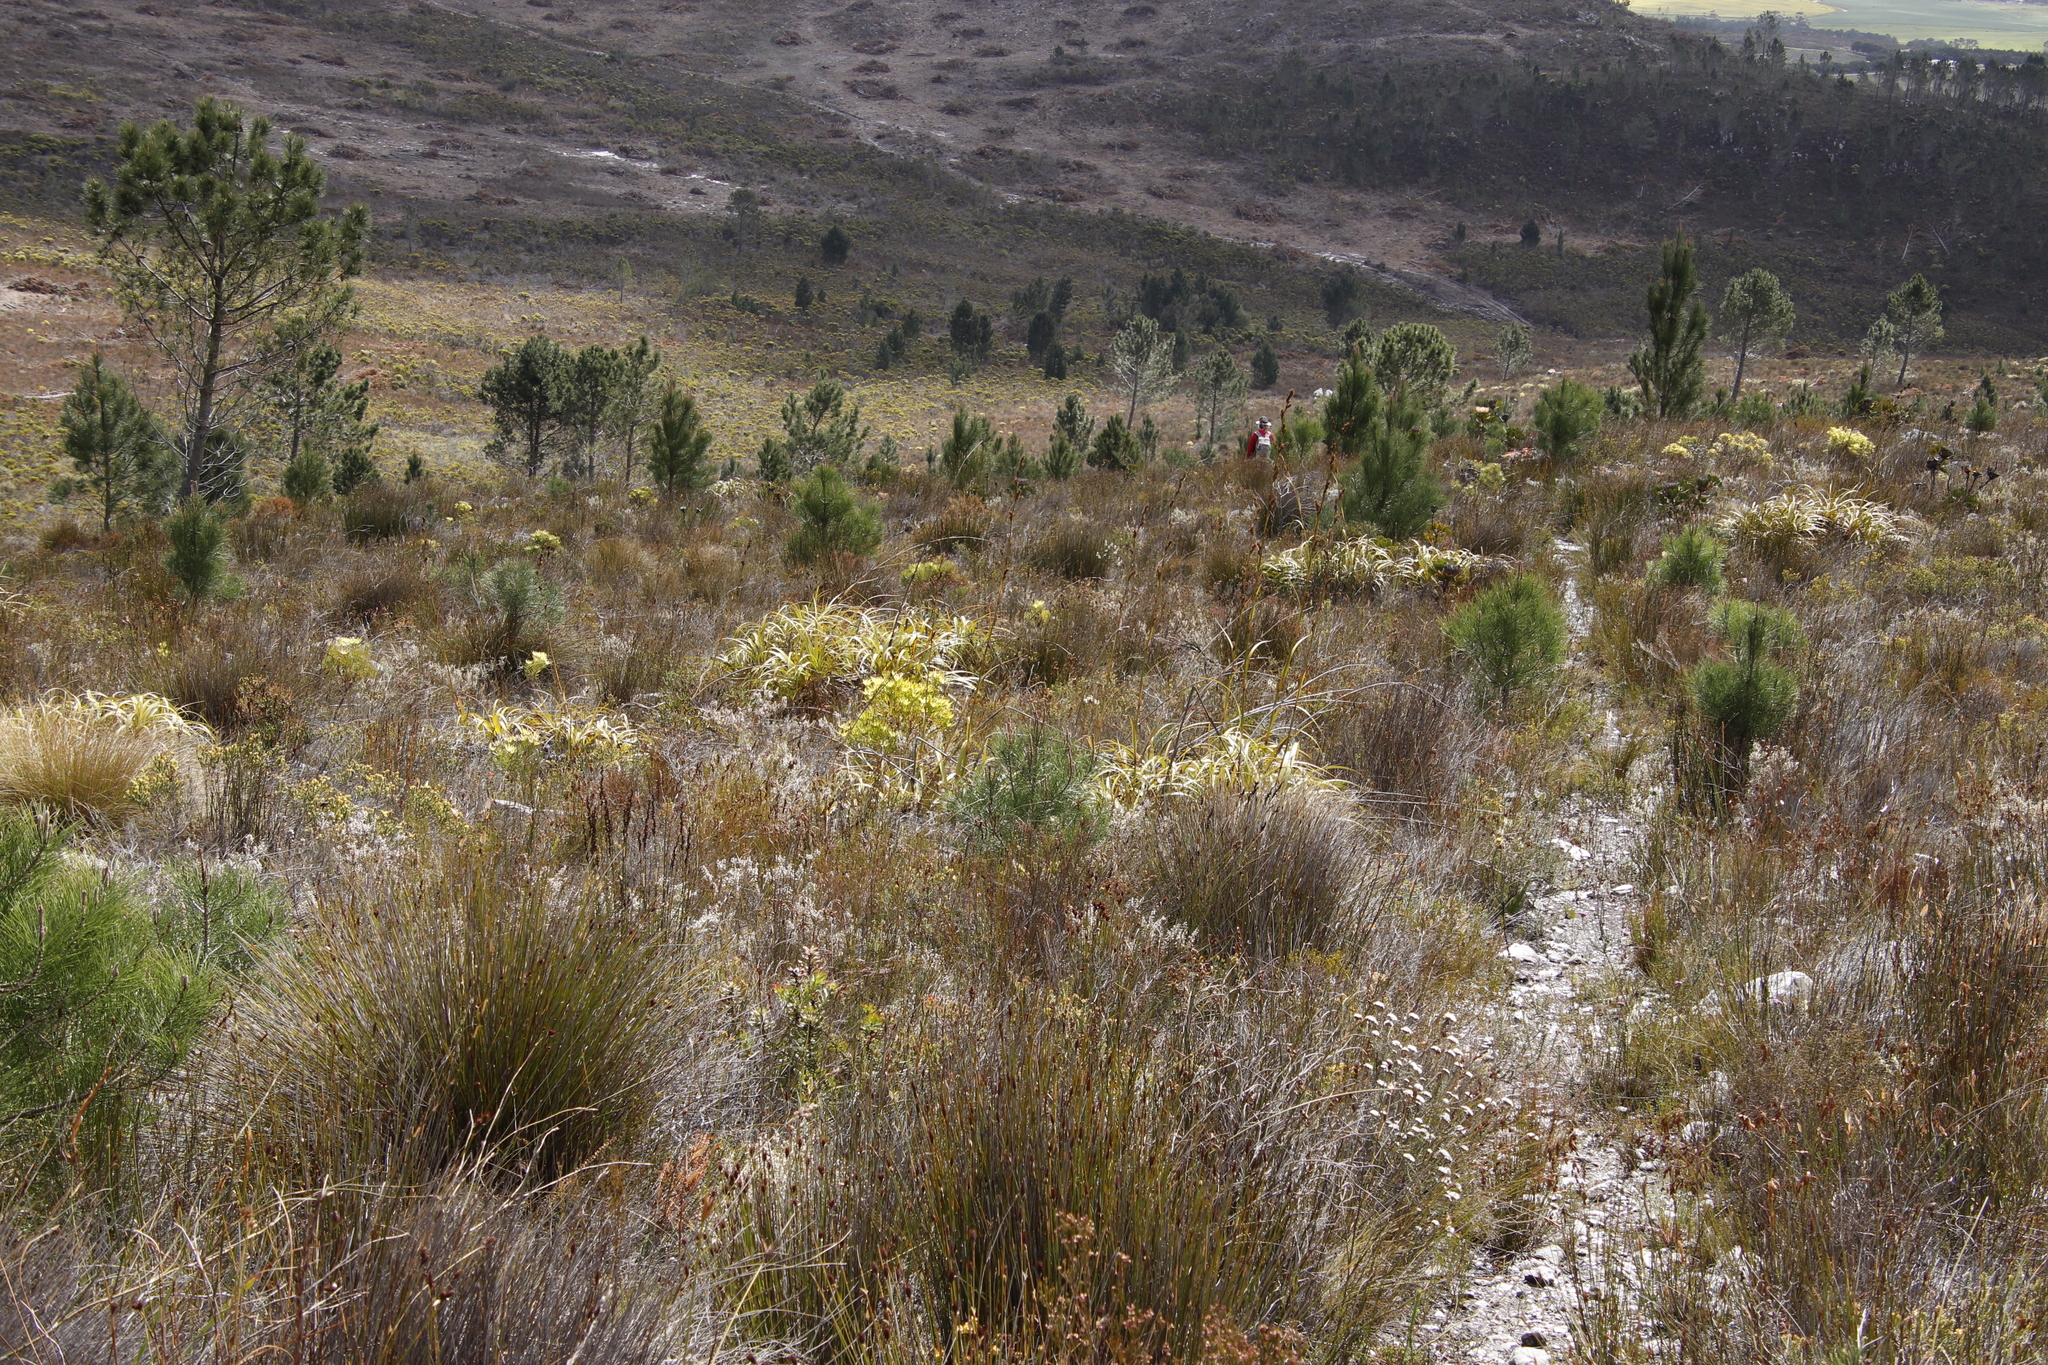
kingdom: Plantae
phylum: Tracheophyta
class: Pinopsida
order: Pinales
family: Pinaceae
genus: Pinus
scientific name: Pinus pinaster
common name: Maritime pine
